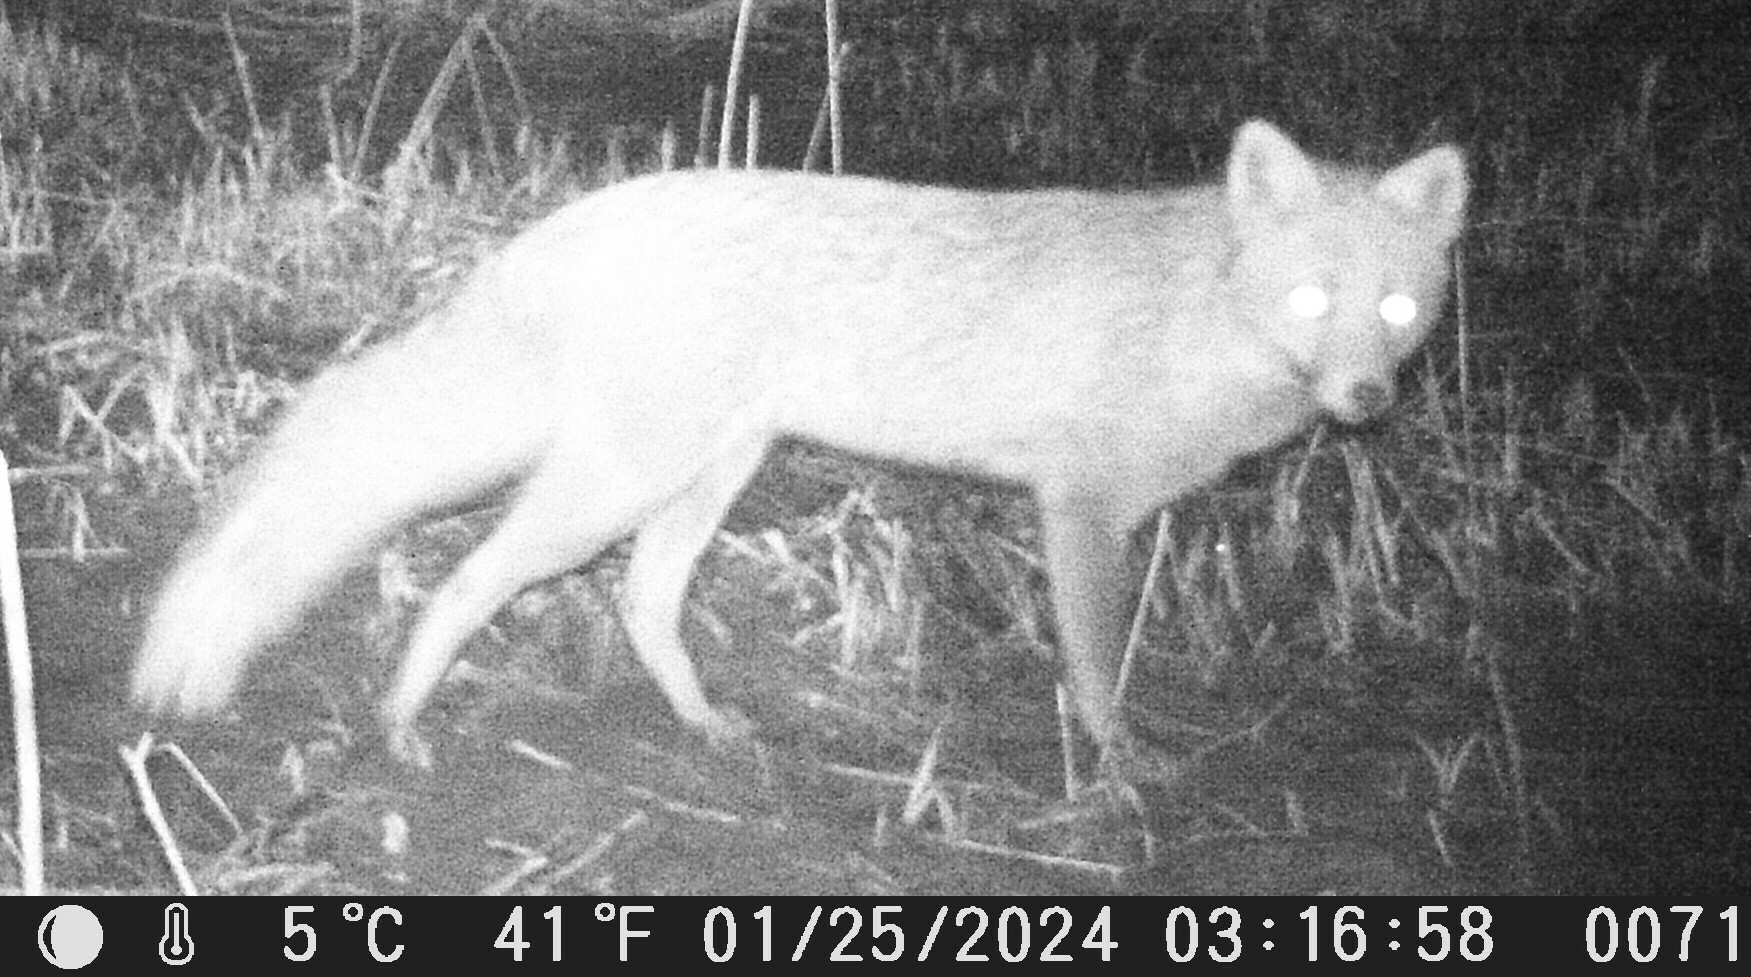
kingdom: Animalia
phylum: Chordata
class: Mammalia
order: Carnivora
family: Canidae
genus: Vulpes
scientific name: Vulpes vulpes
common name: Red fox
